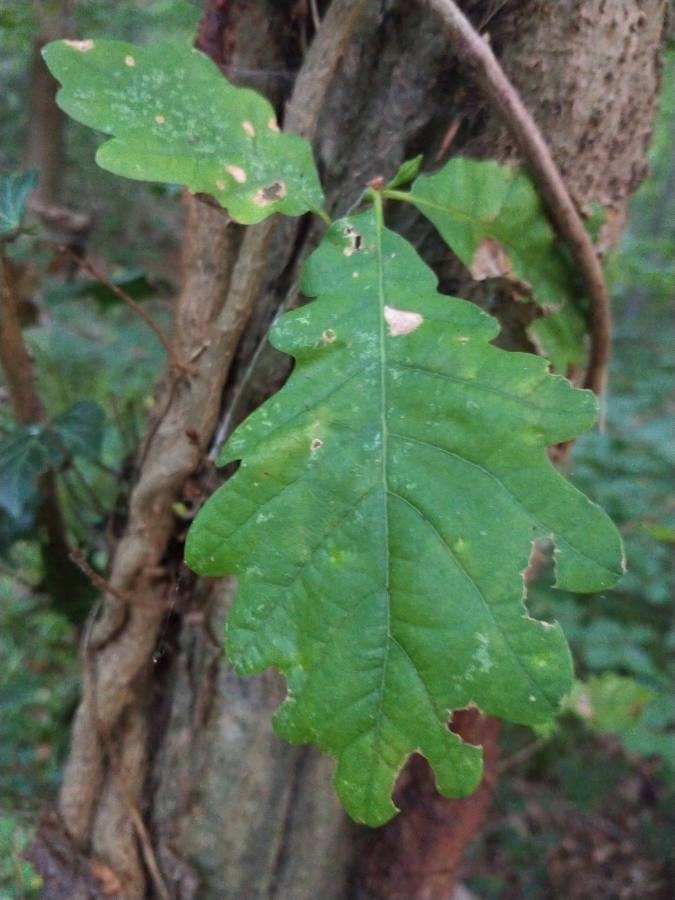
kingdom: Plantae
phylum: Tracheophyta
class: Magnoliopsida
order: Fagales
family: Fagaceae
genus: Quercus
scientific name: Quercus petraea
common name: Sessile oak
